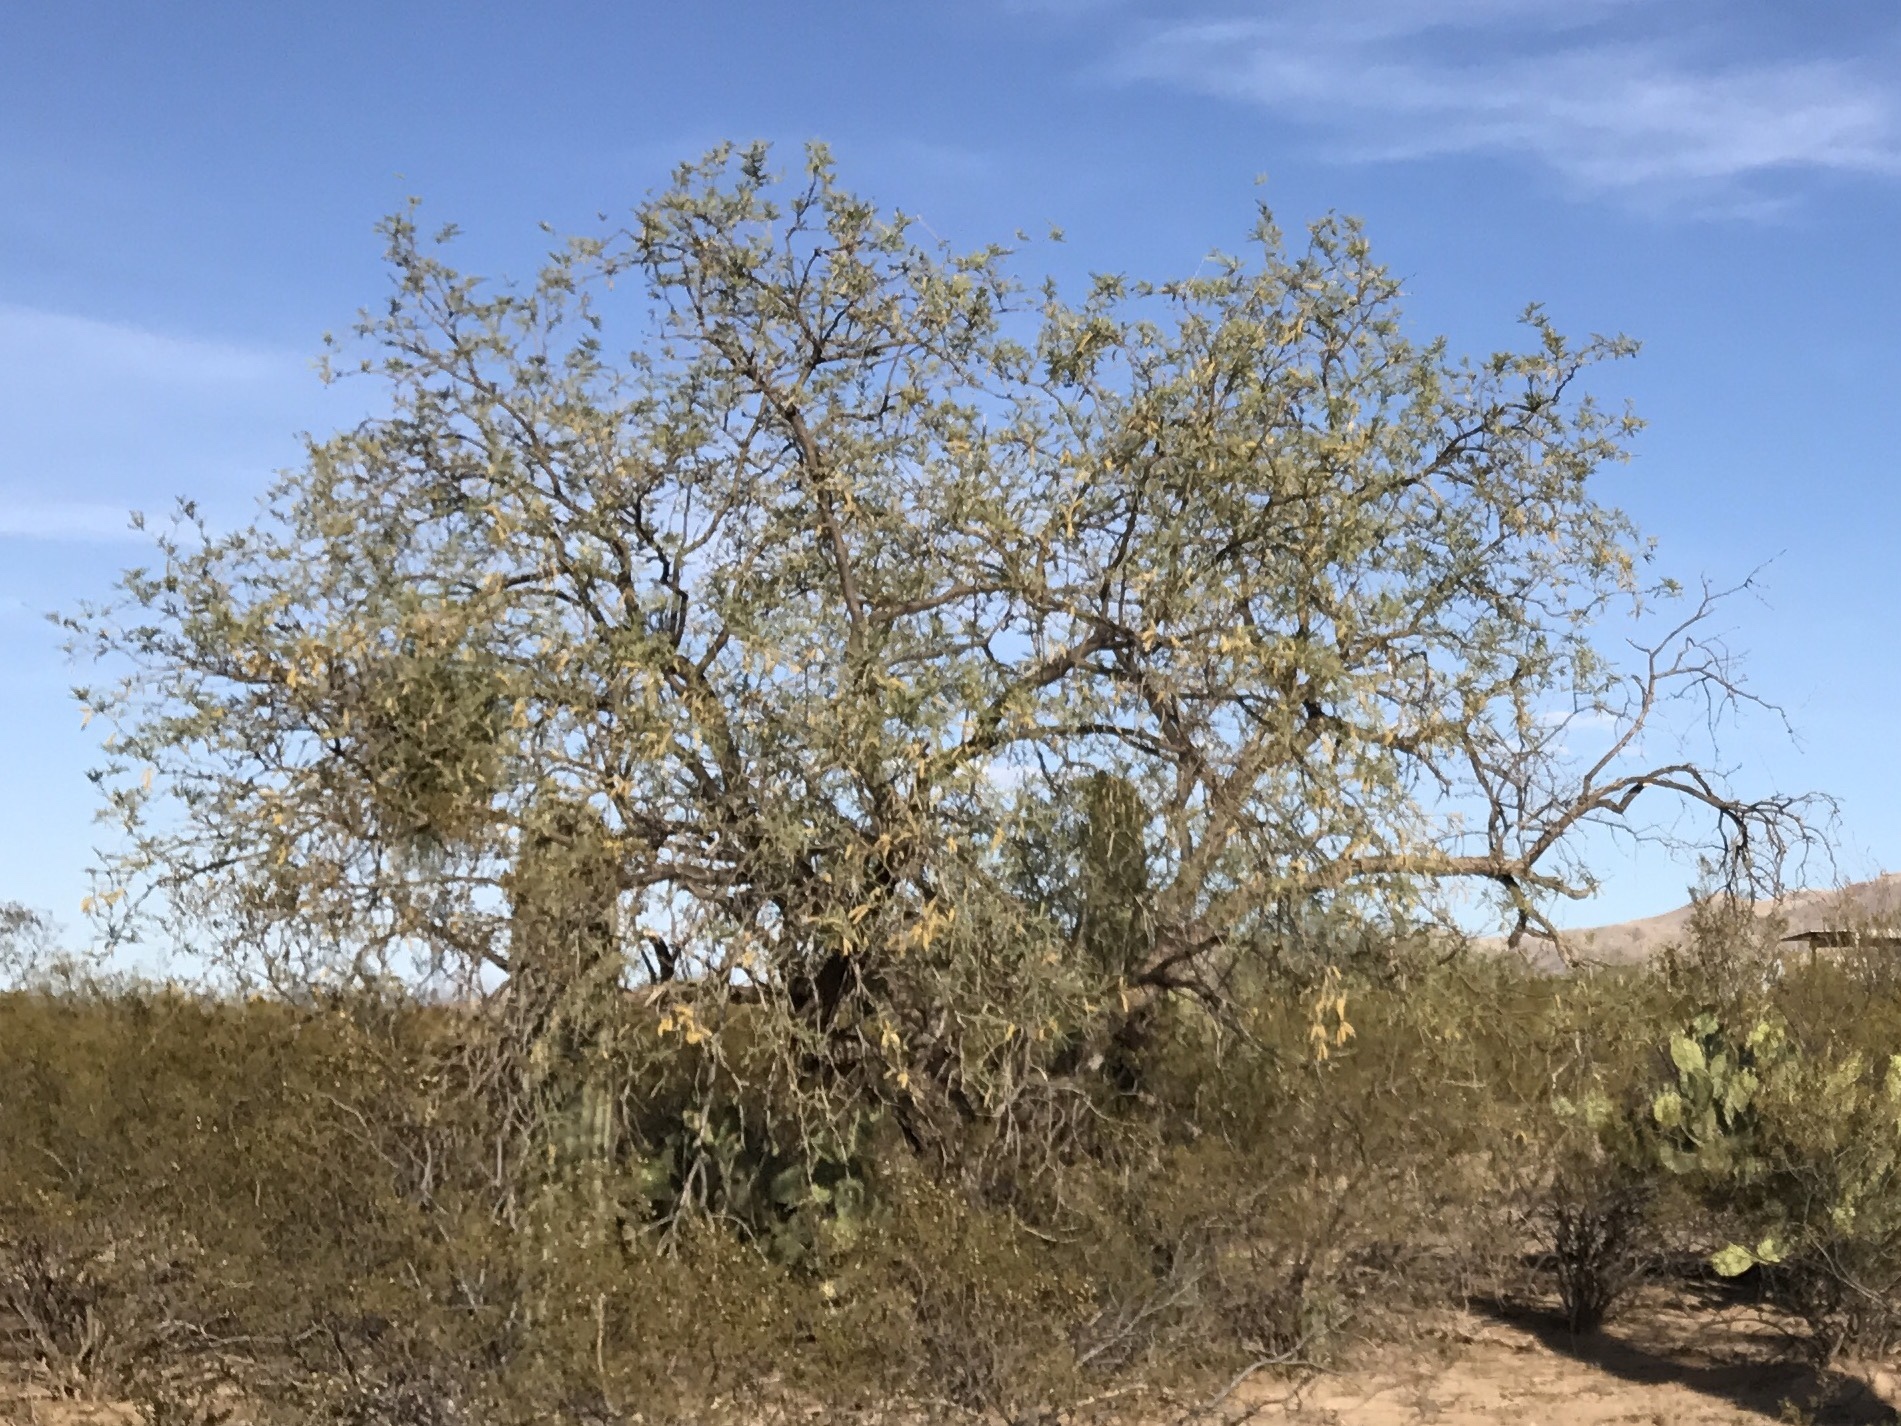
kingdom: Plantae
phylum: Tracheophyta
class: Magnoliopsida
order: Fabales
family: Fabaceae
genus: Prosopis
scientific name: Prosopis velutina
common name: Velvet mesquite
